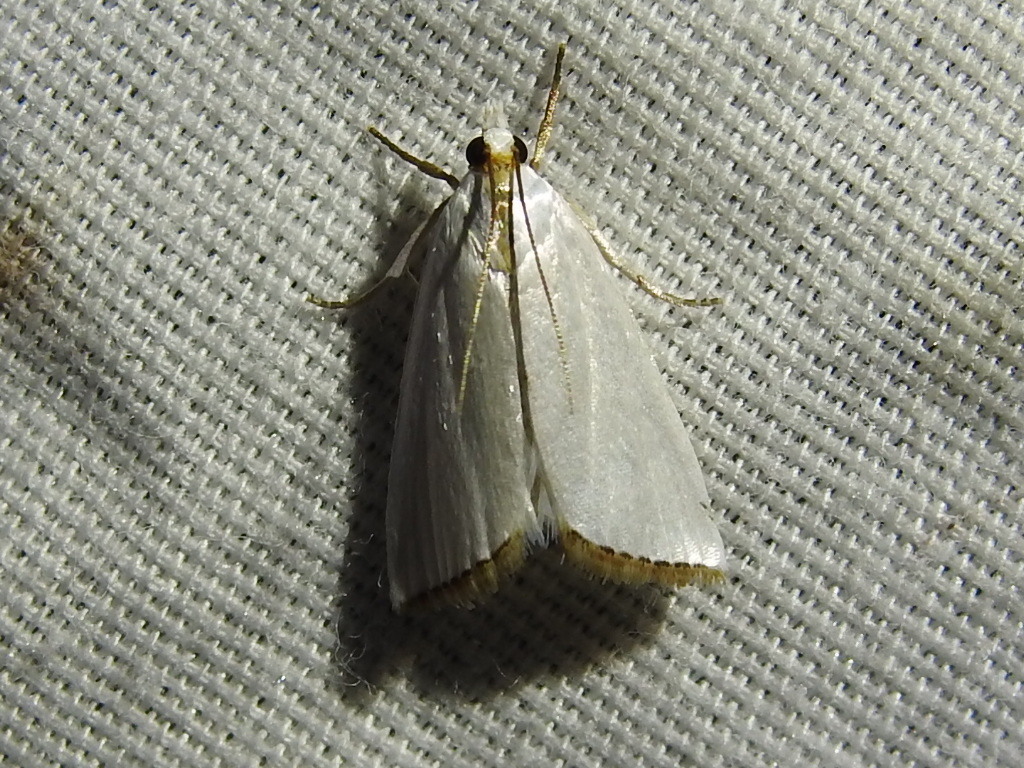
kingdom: Animalia
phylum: Arthropoda
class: Insecta
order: Lepidoptera
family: Crambidae
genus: Argyria
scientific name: Argyria nivalis
